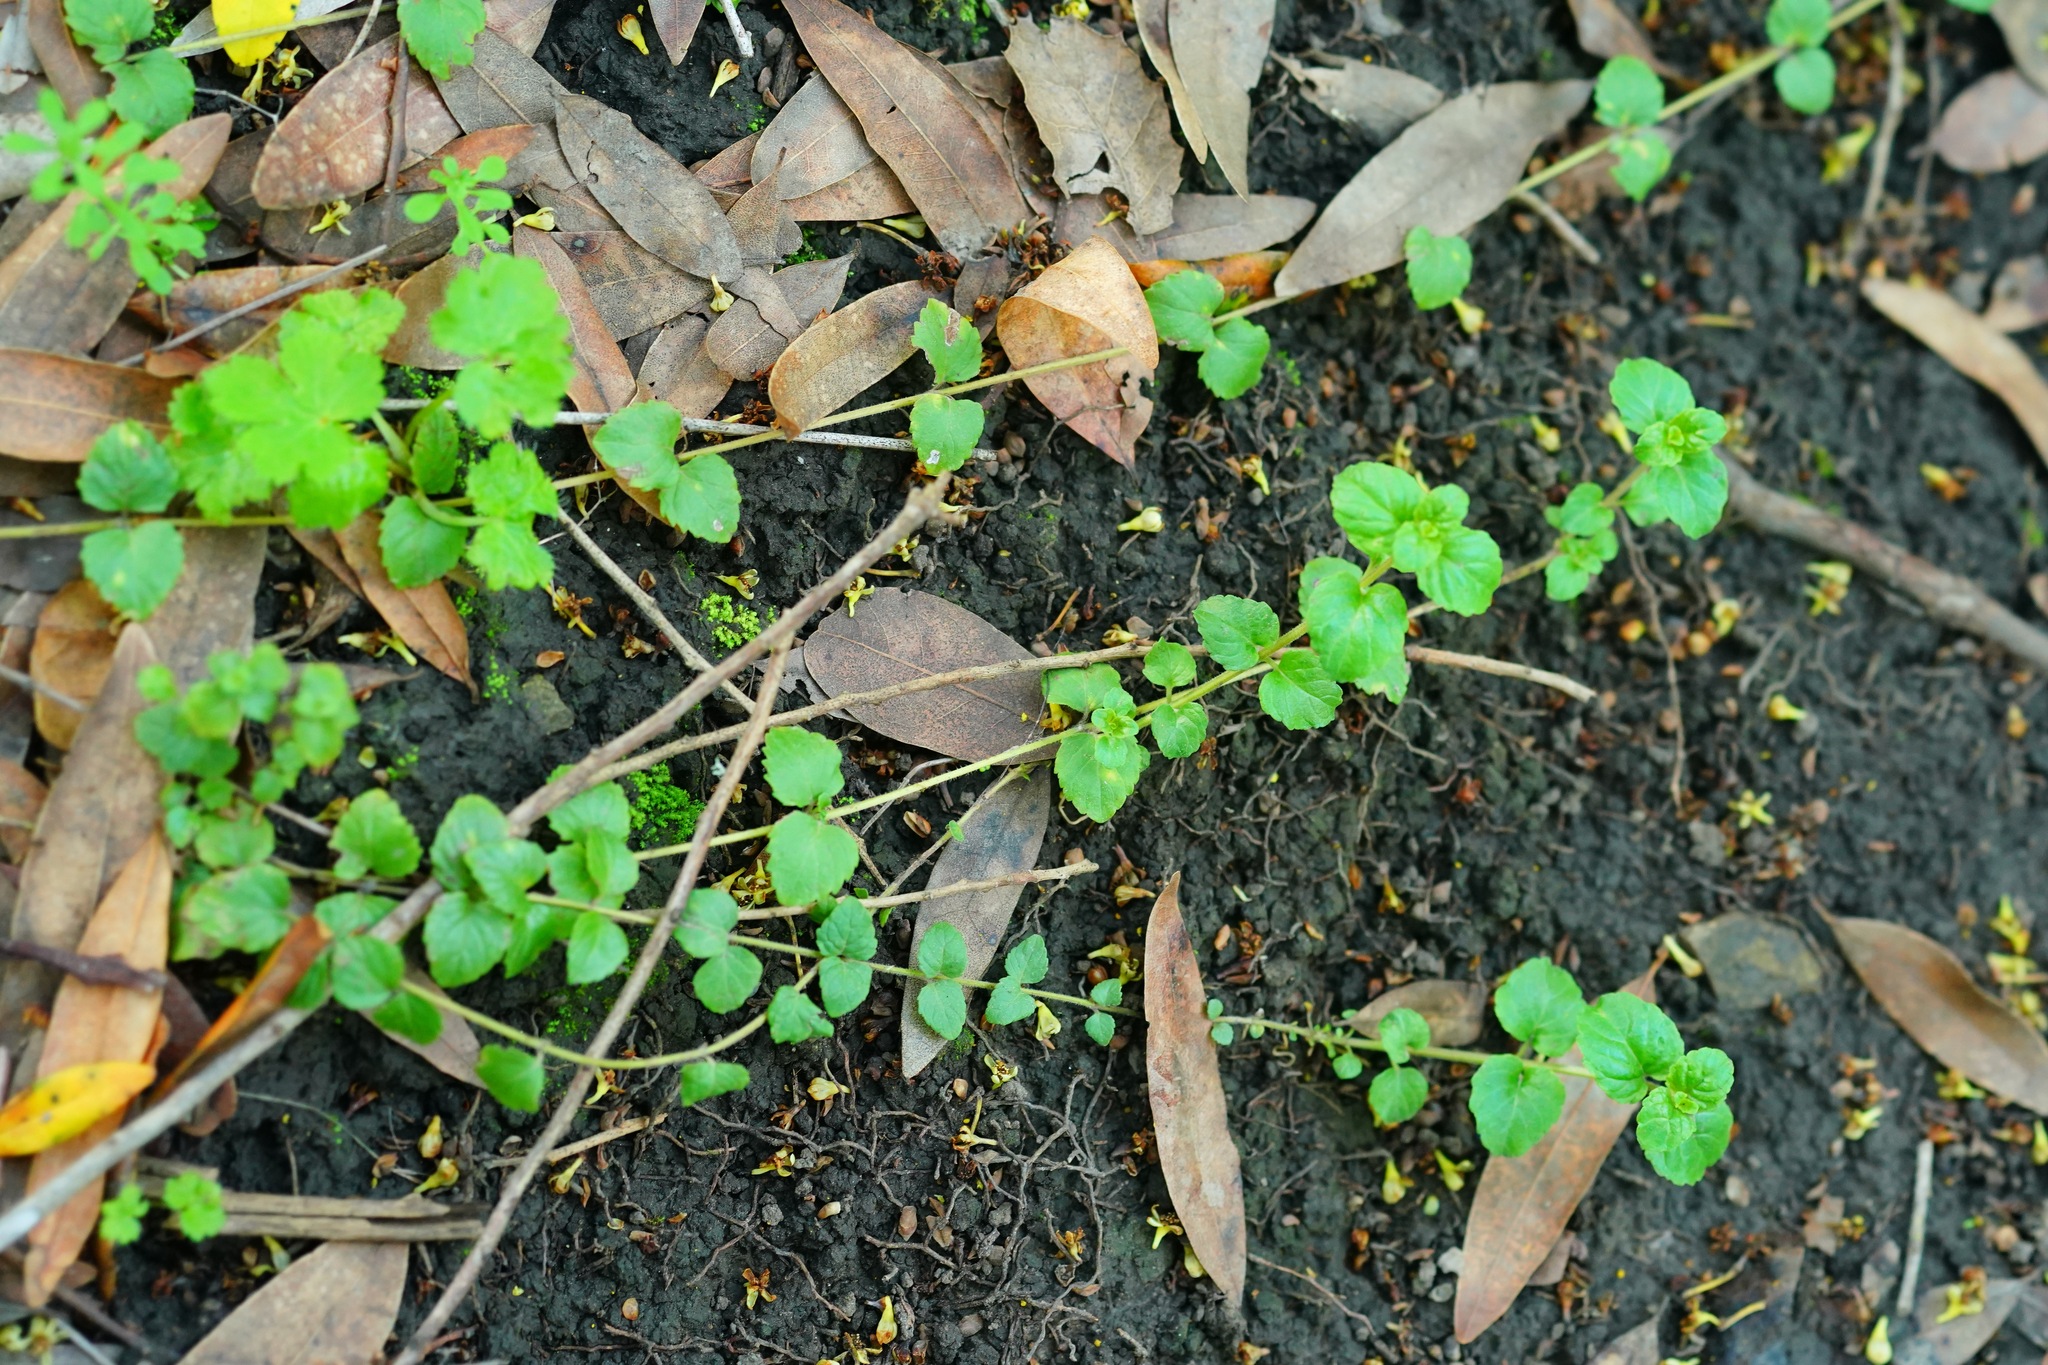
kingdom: Plantae
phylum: Tracheophyta
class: Magnoliopsida
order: Lamiales
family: Lamiaceae
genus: Micromeria
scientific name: Micromeria douglasii
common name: Yerba buena
